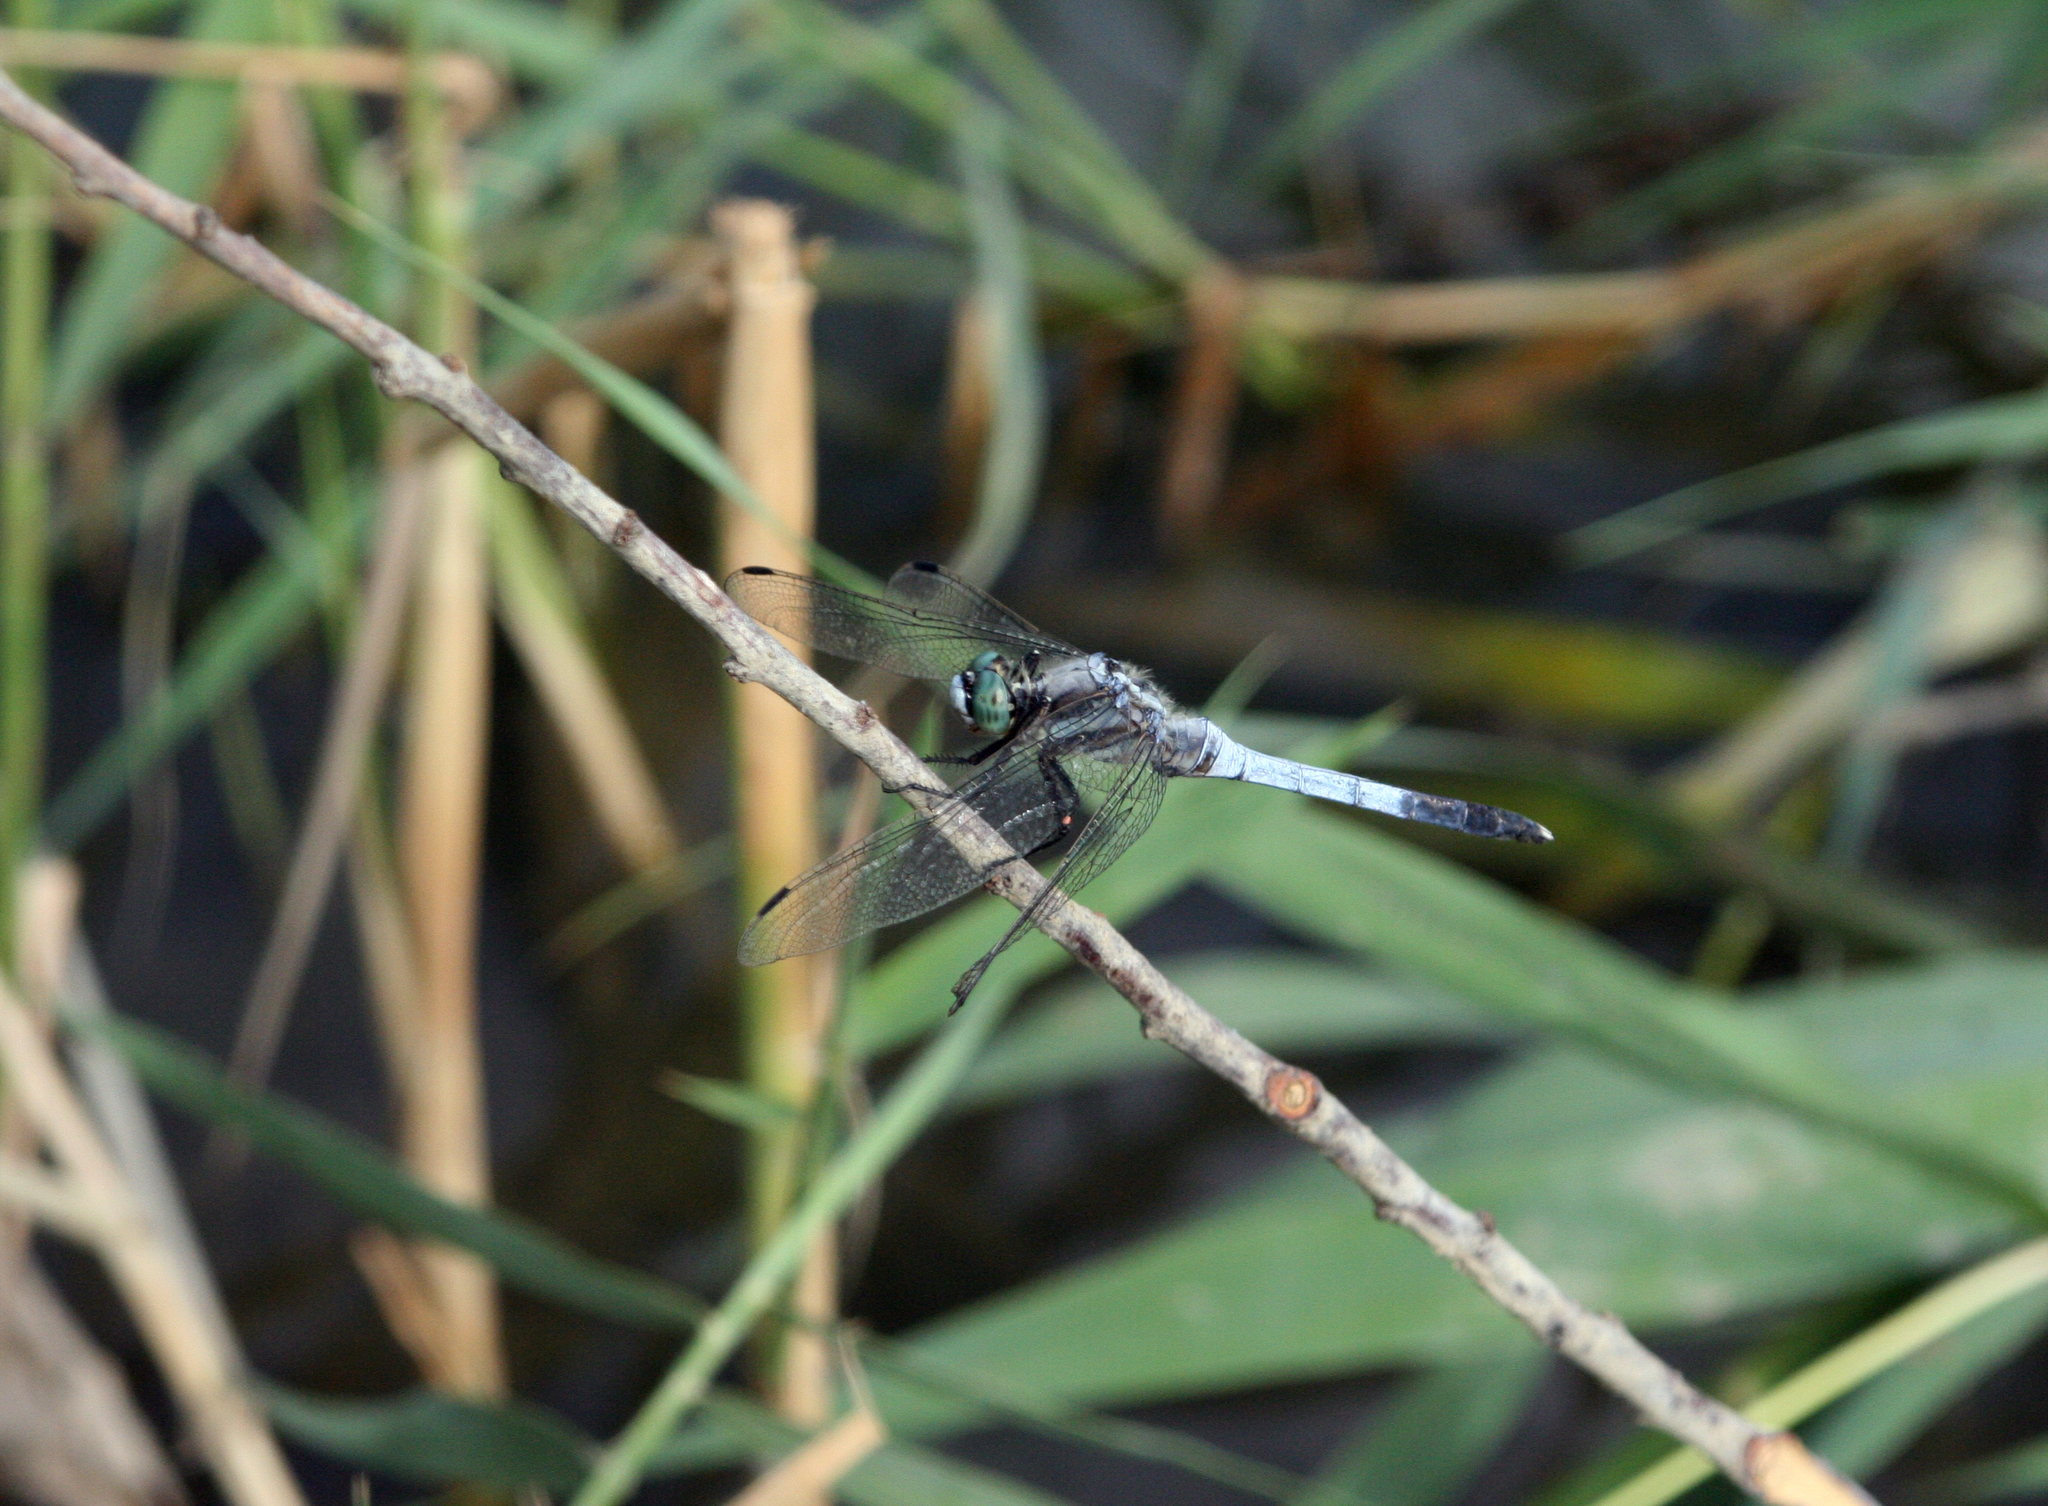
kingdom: Animalia
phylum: Arthropoda
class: Insecta
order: Odonata
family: Libellulidae
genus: Orthetrum
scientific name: Orthetrum albistylum
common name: White-tailed skimmer
